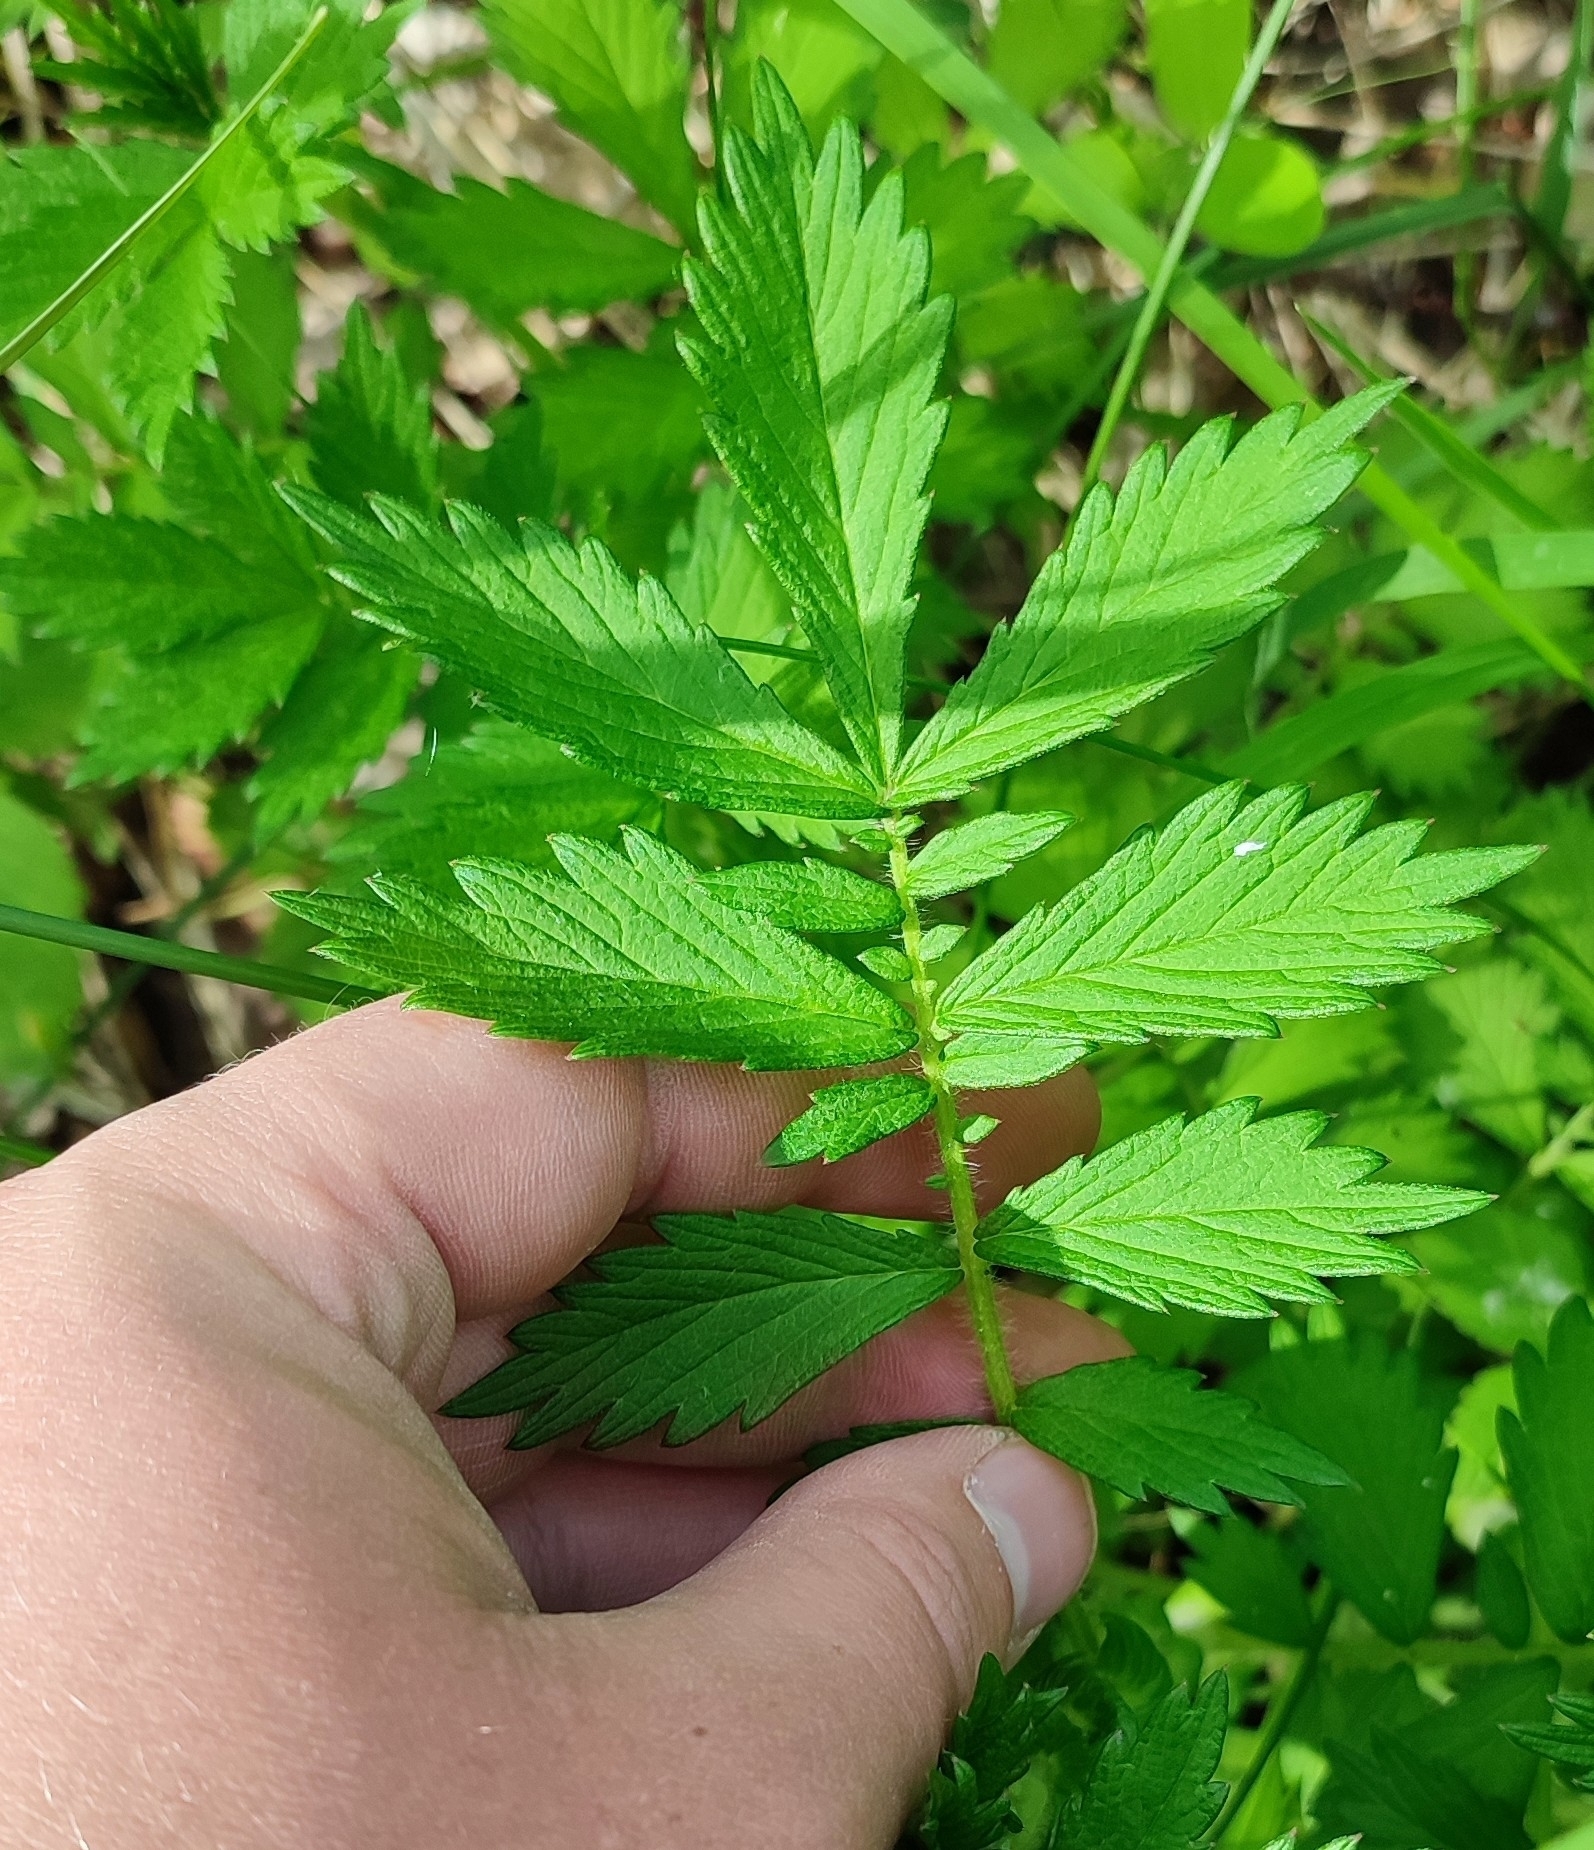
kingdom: Plantae
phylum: Tracheophyta
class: Magnoliopsida
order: Rosales
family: Rosaceae
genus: Agrimonia
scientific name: Agrimonia pilosa
